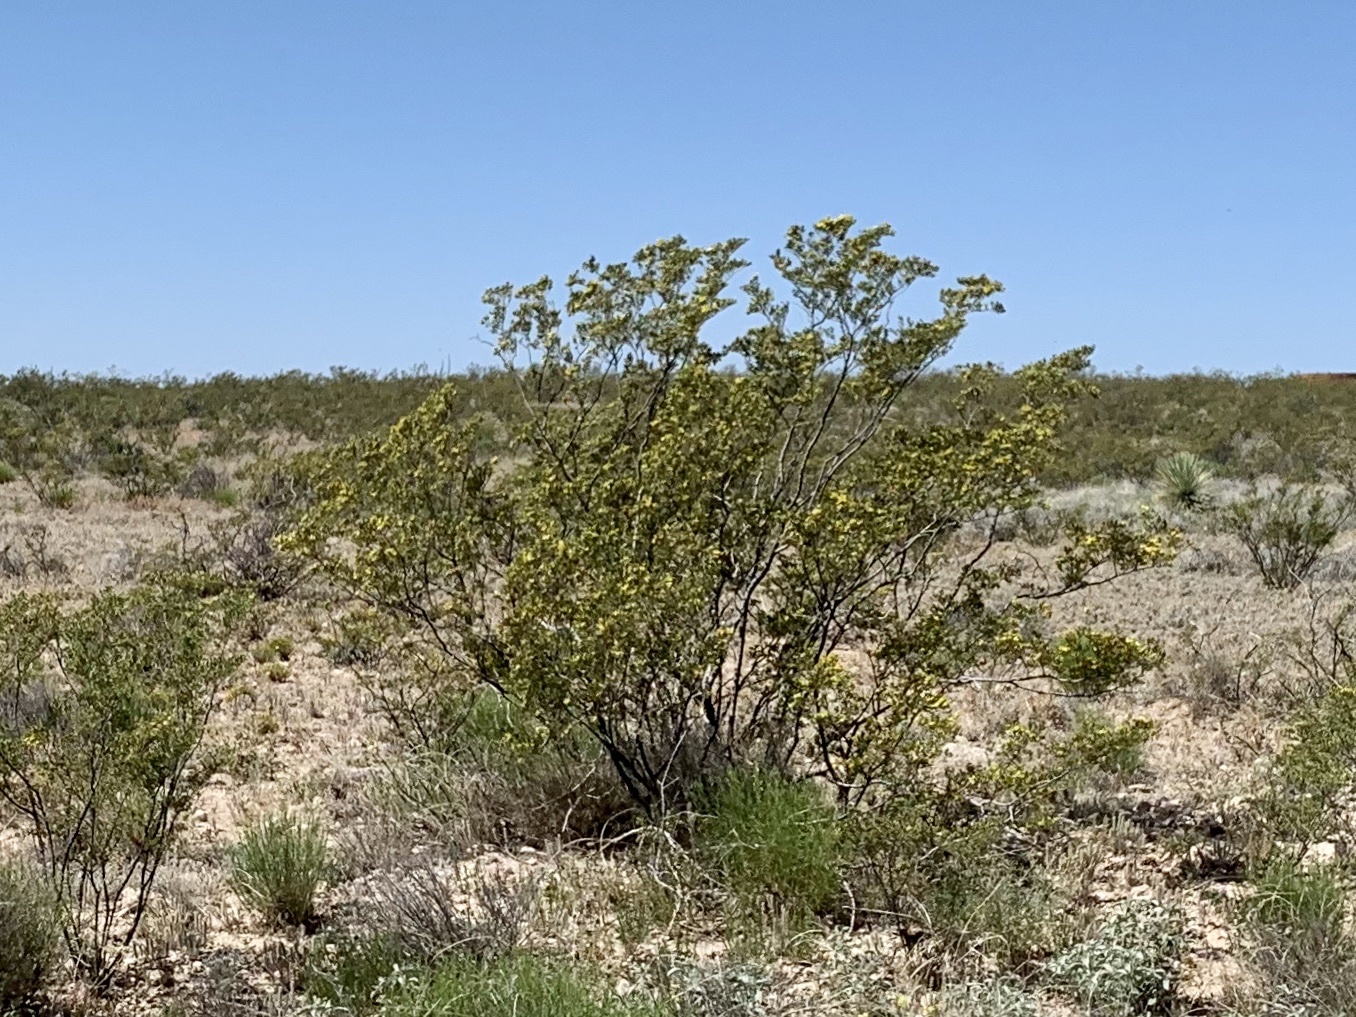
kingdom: Plantae
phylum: Tracheophyta
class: Magnoliopsida
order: Zygophyllales
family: Zygophyllaceae
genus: Larrea
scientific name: Larrea tridentata
